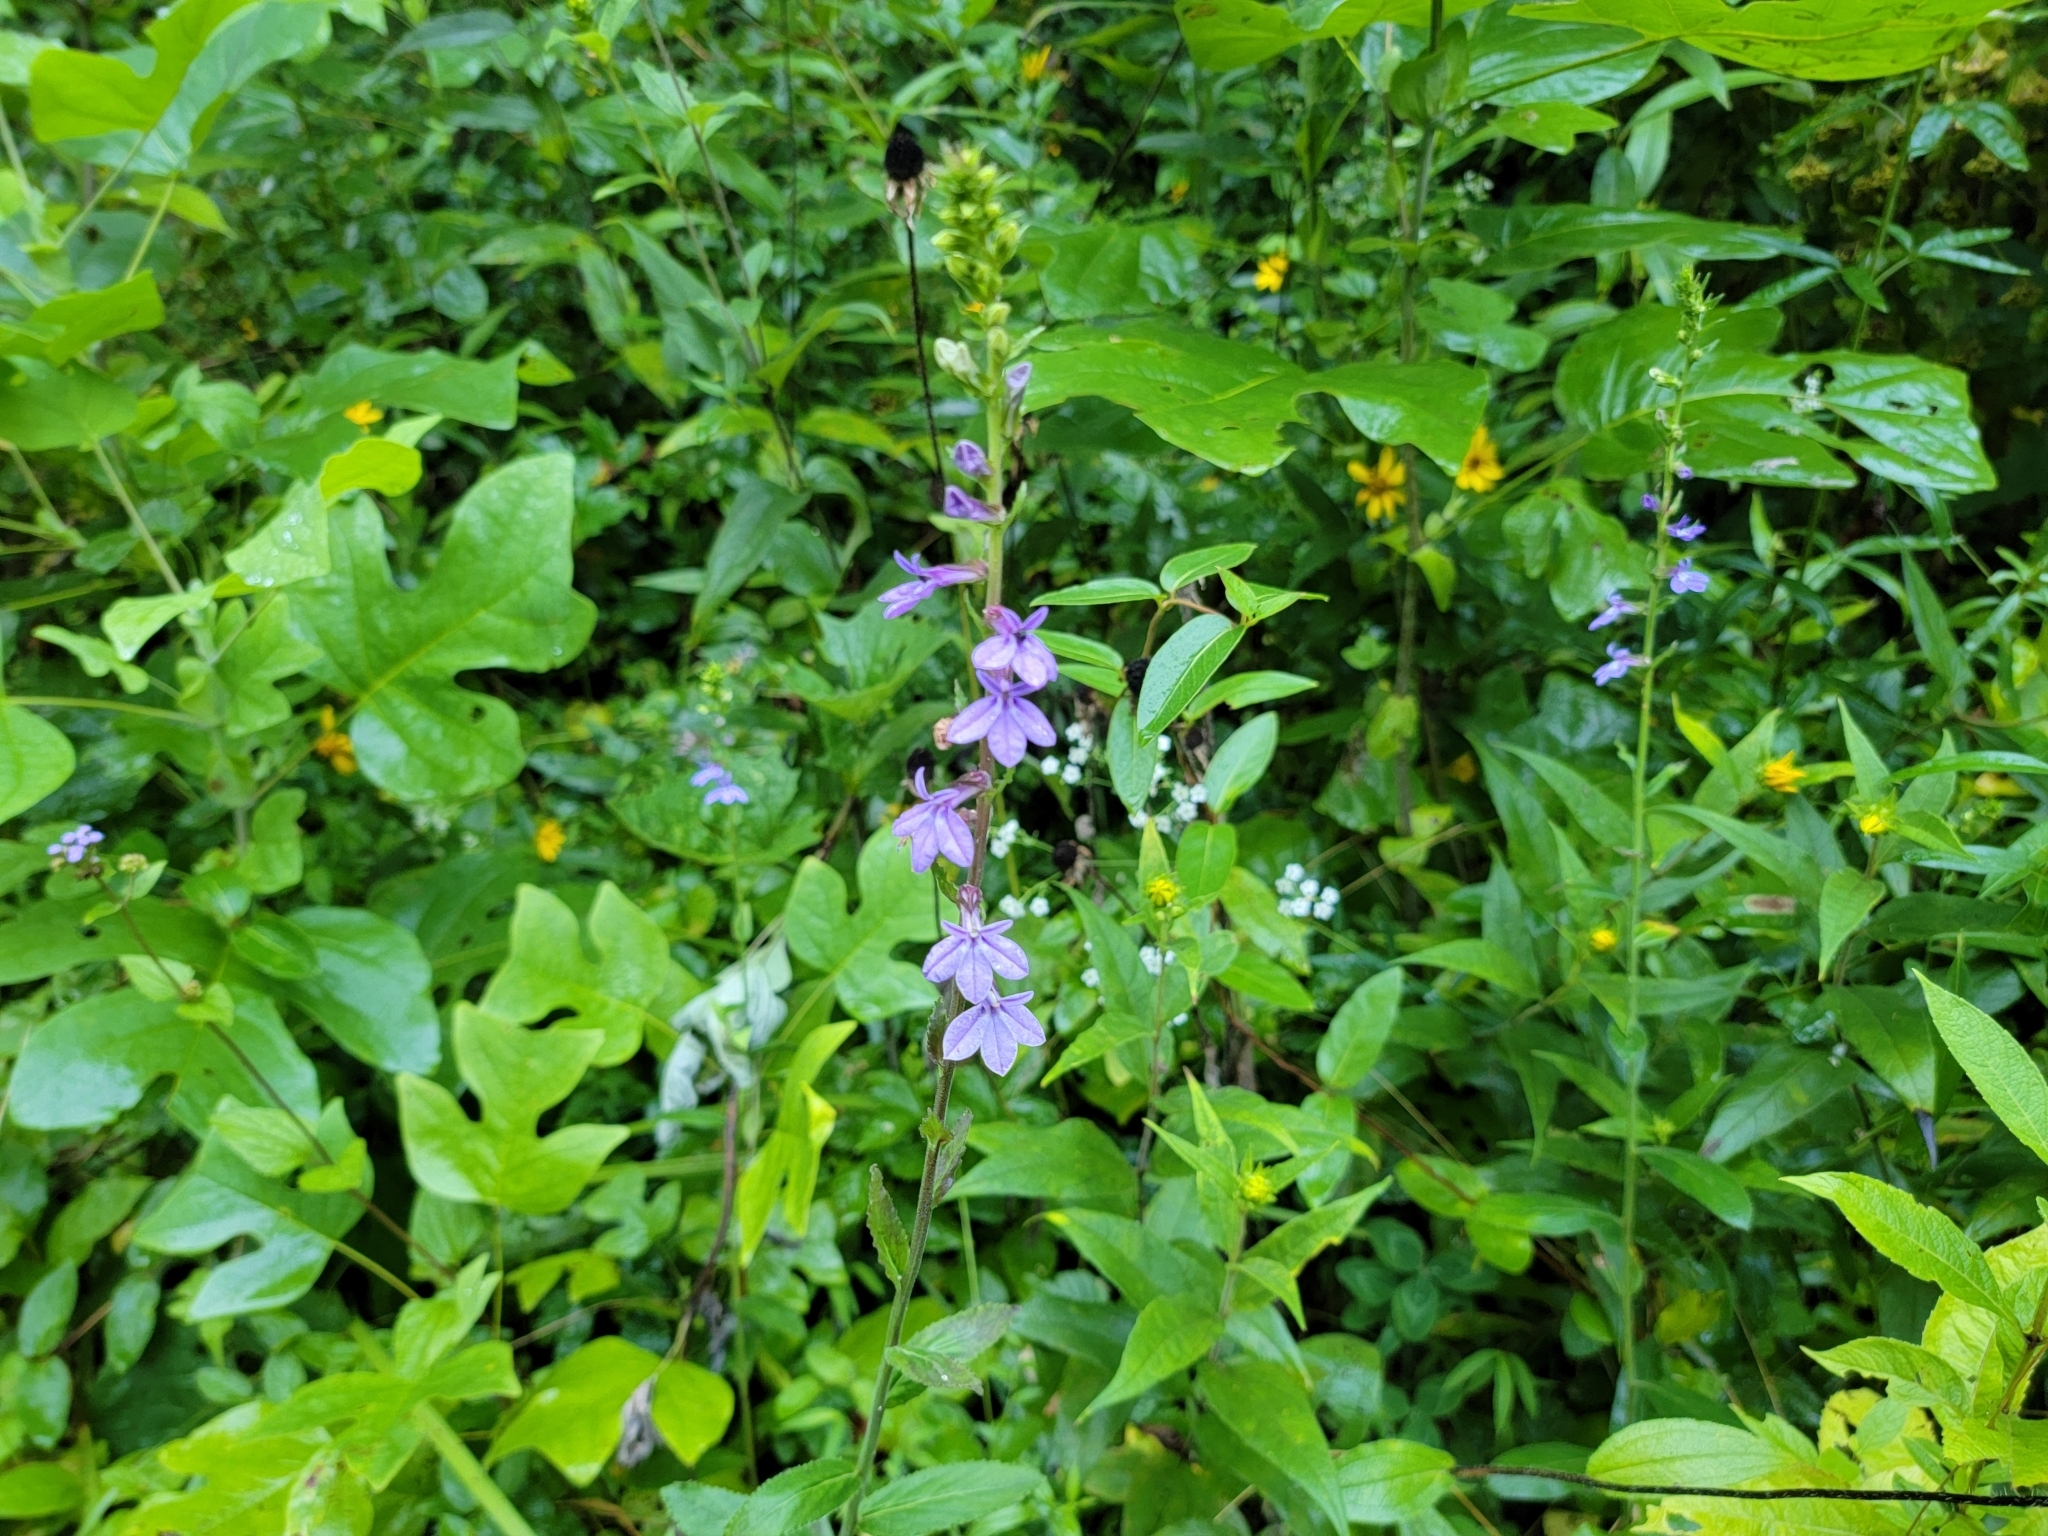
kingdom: Plantae
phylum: Tracheophyta
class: Magnoliopsida
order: Asterales
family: Campanulaceae
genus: Lobelia
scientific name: Lobelia puberula
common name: Purple dewdrop
